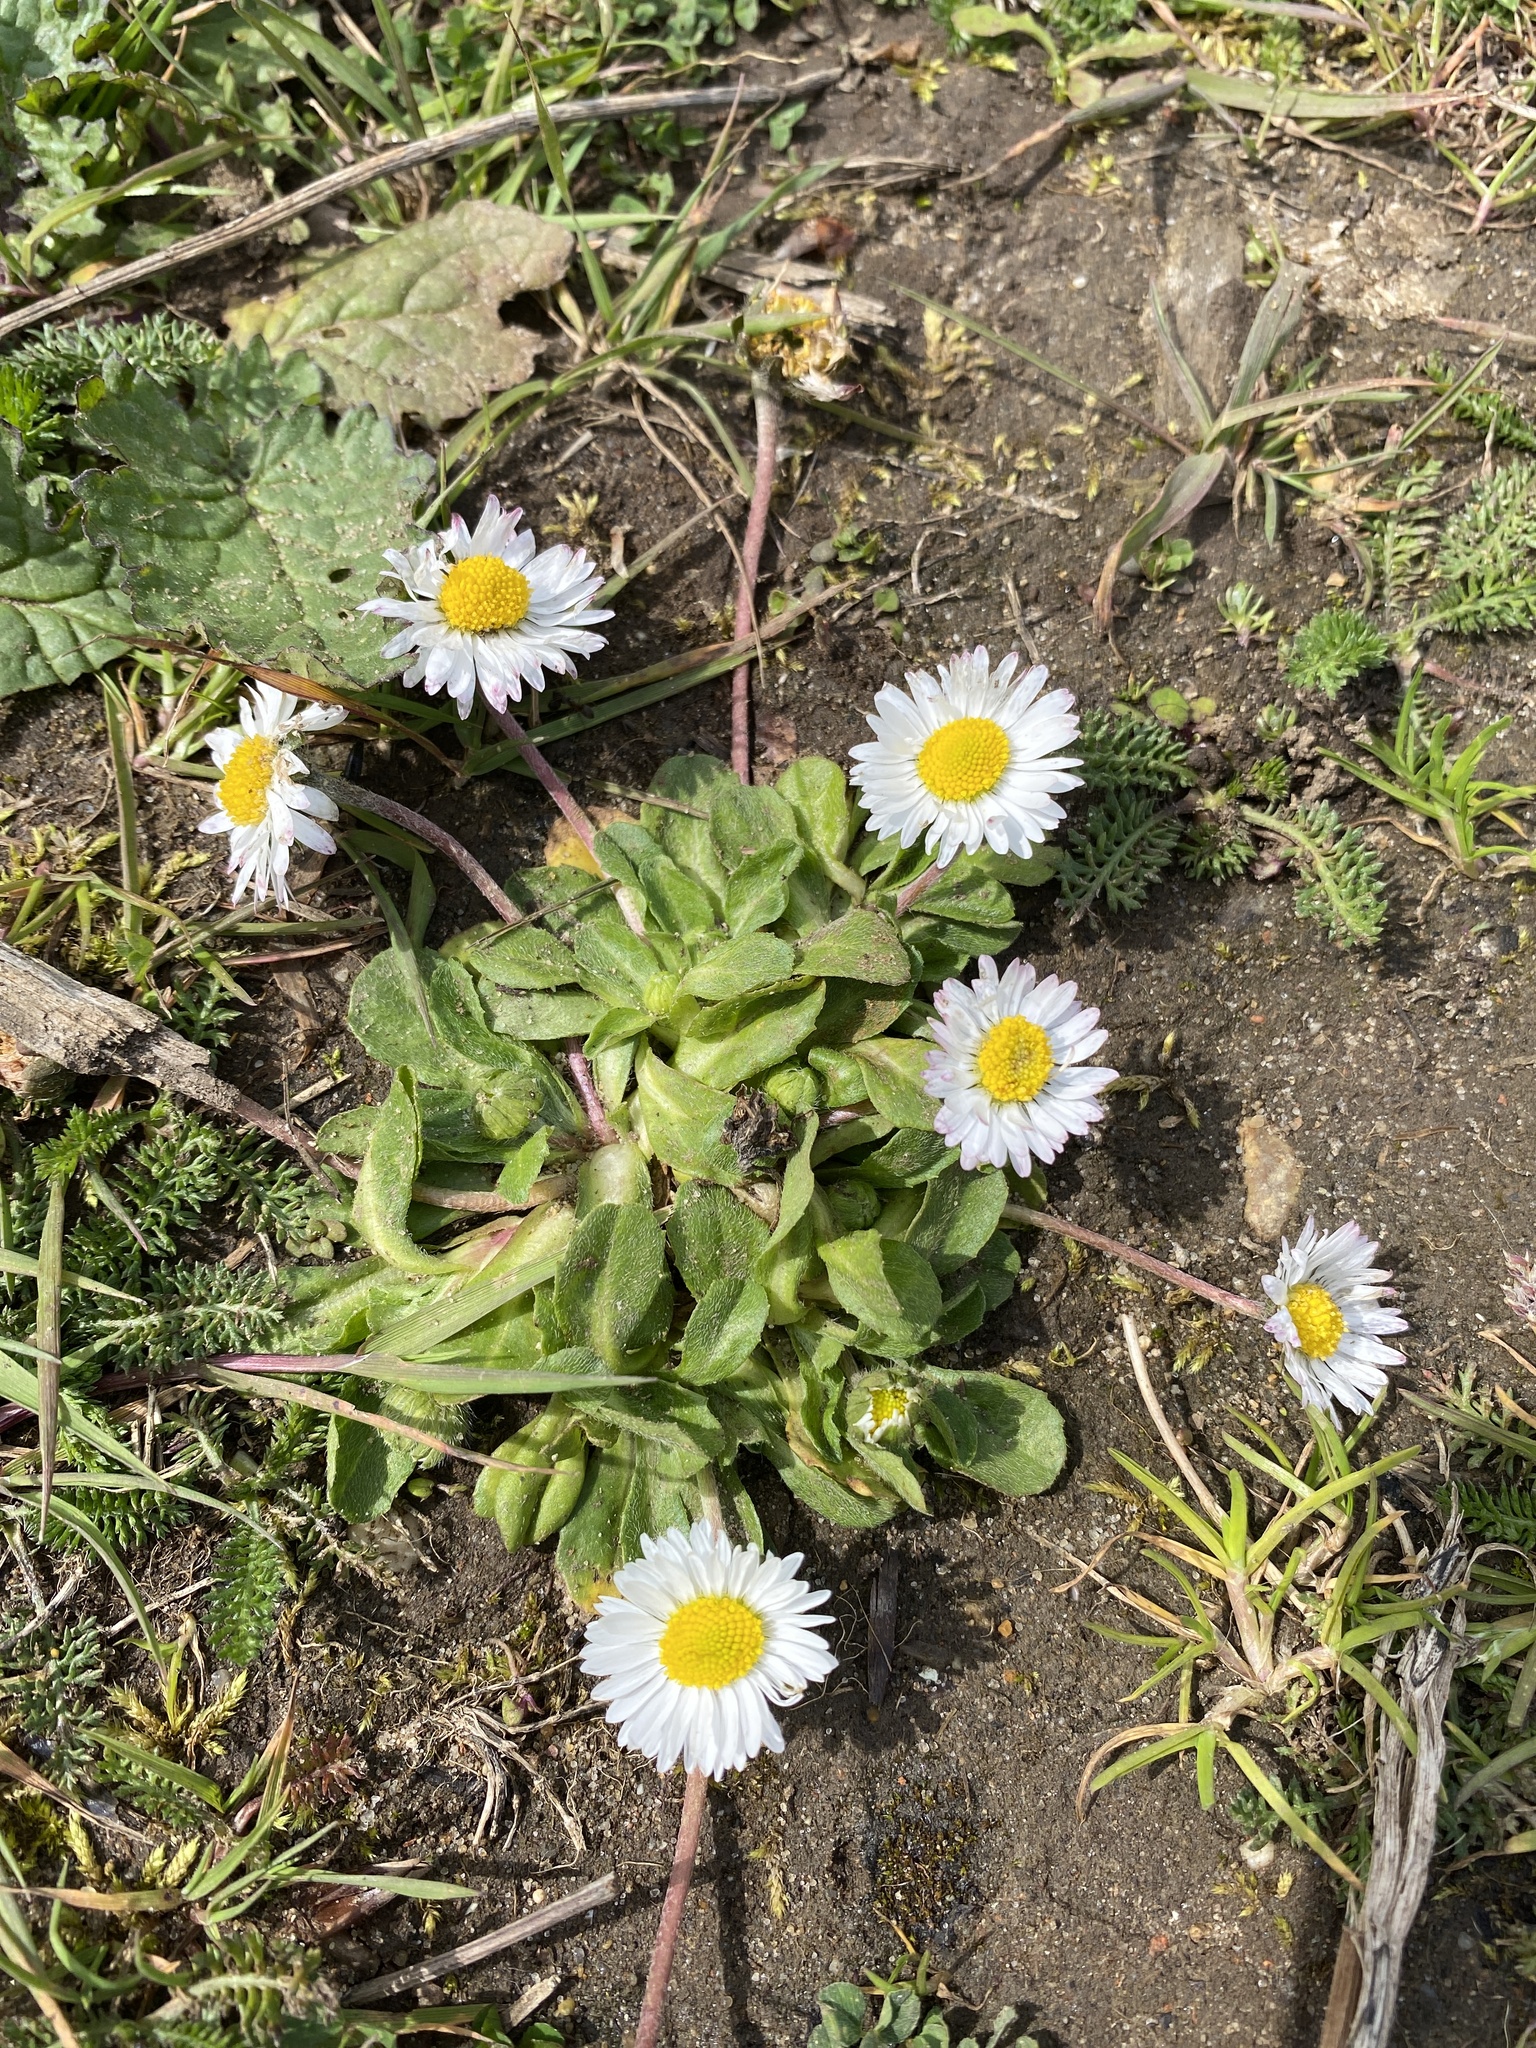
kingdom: Plantae
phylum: Tracheophyta
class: Magnoliopsida
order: Asterales
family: Asteraceae
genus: Bellis
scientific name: Bellis perennis
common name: Lawndaisy
